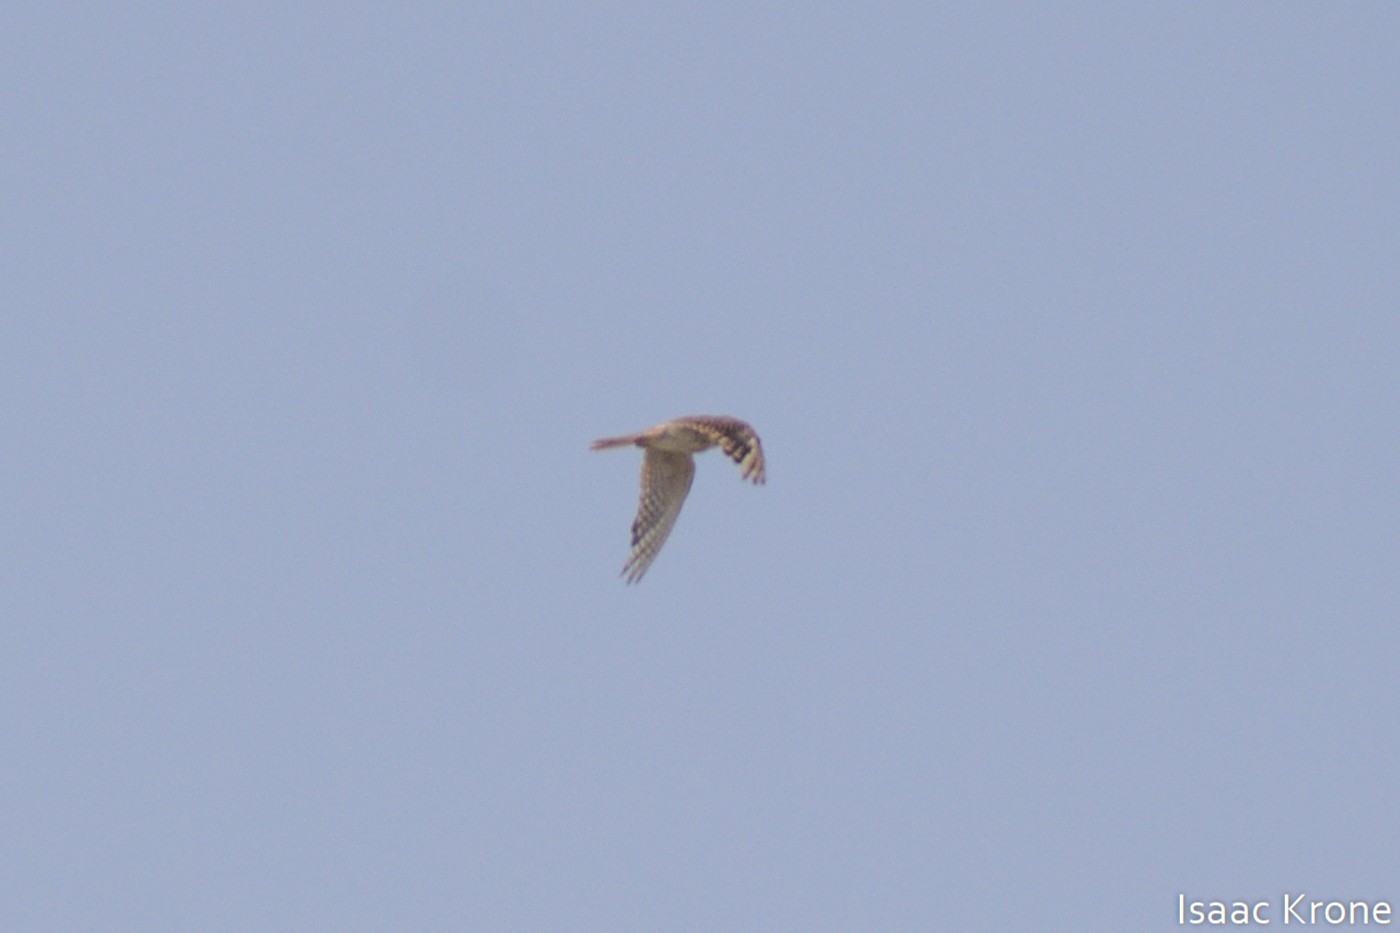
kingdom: Animalia
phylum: Chordata
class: Aves
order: Falconiformes
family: Falconidae
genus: Falco
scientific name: Falco mexicanus
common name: Prairie falcon
